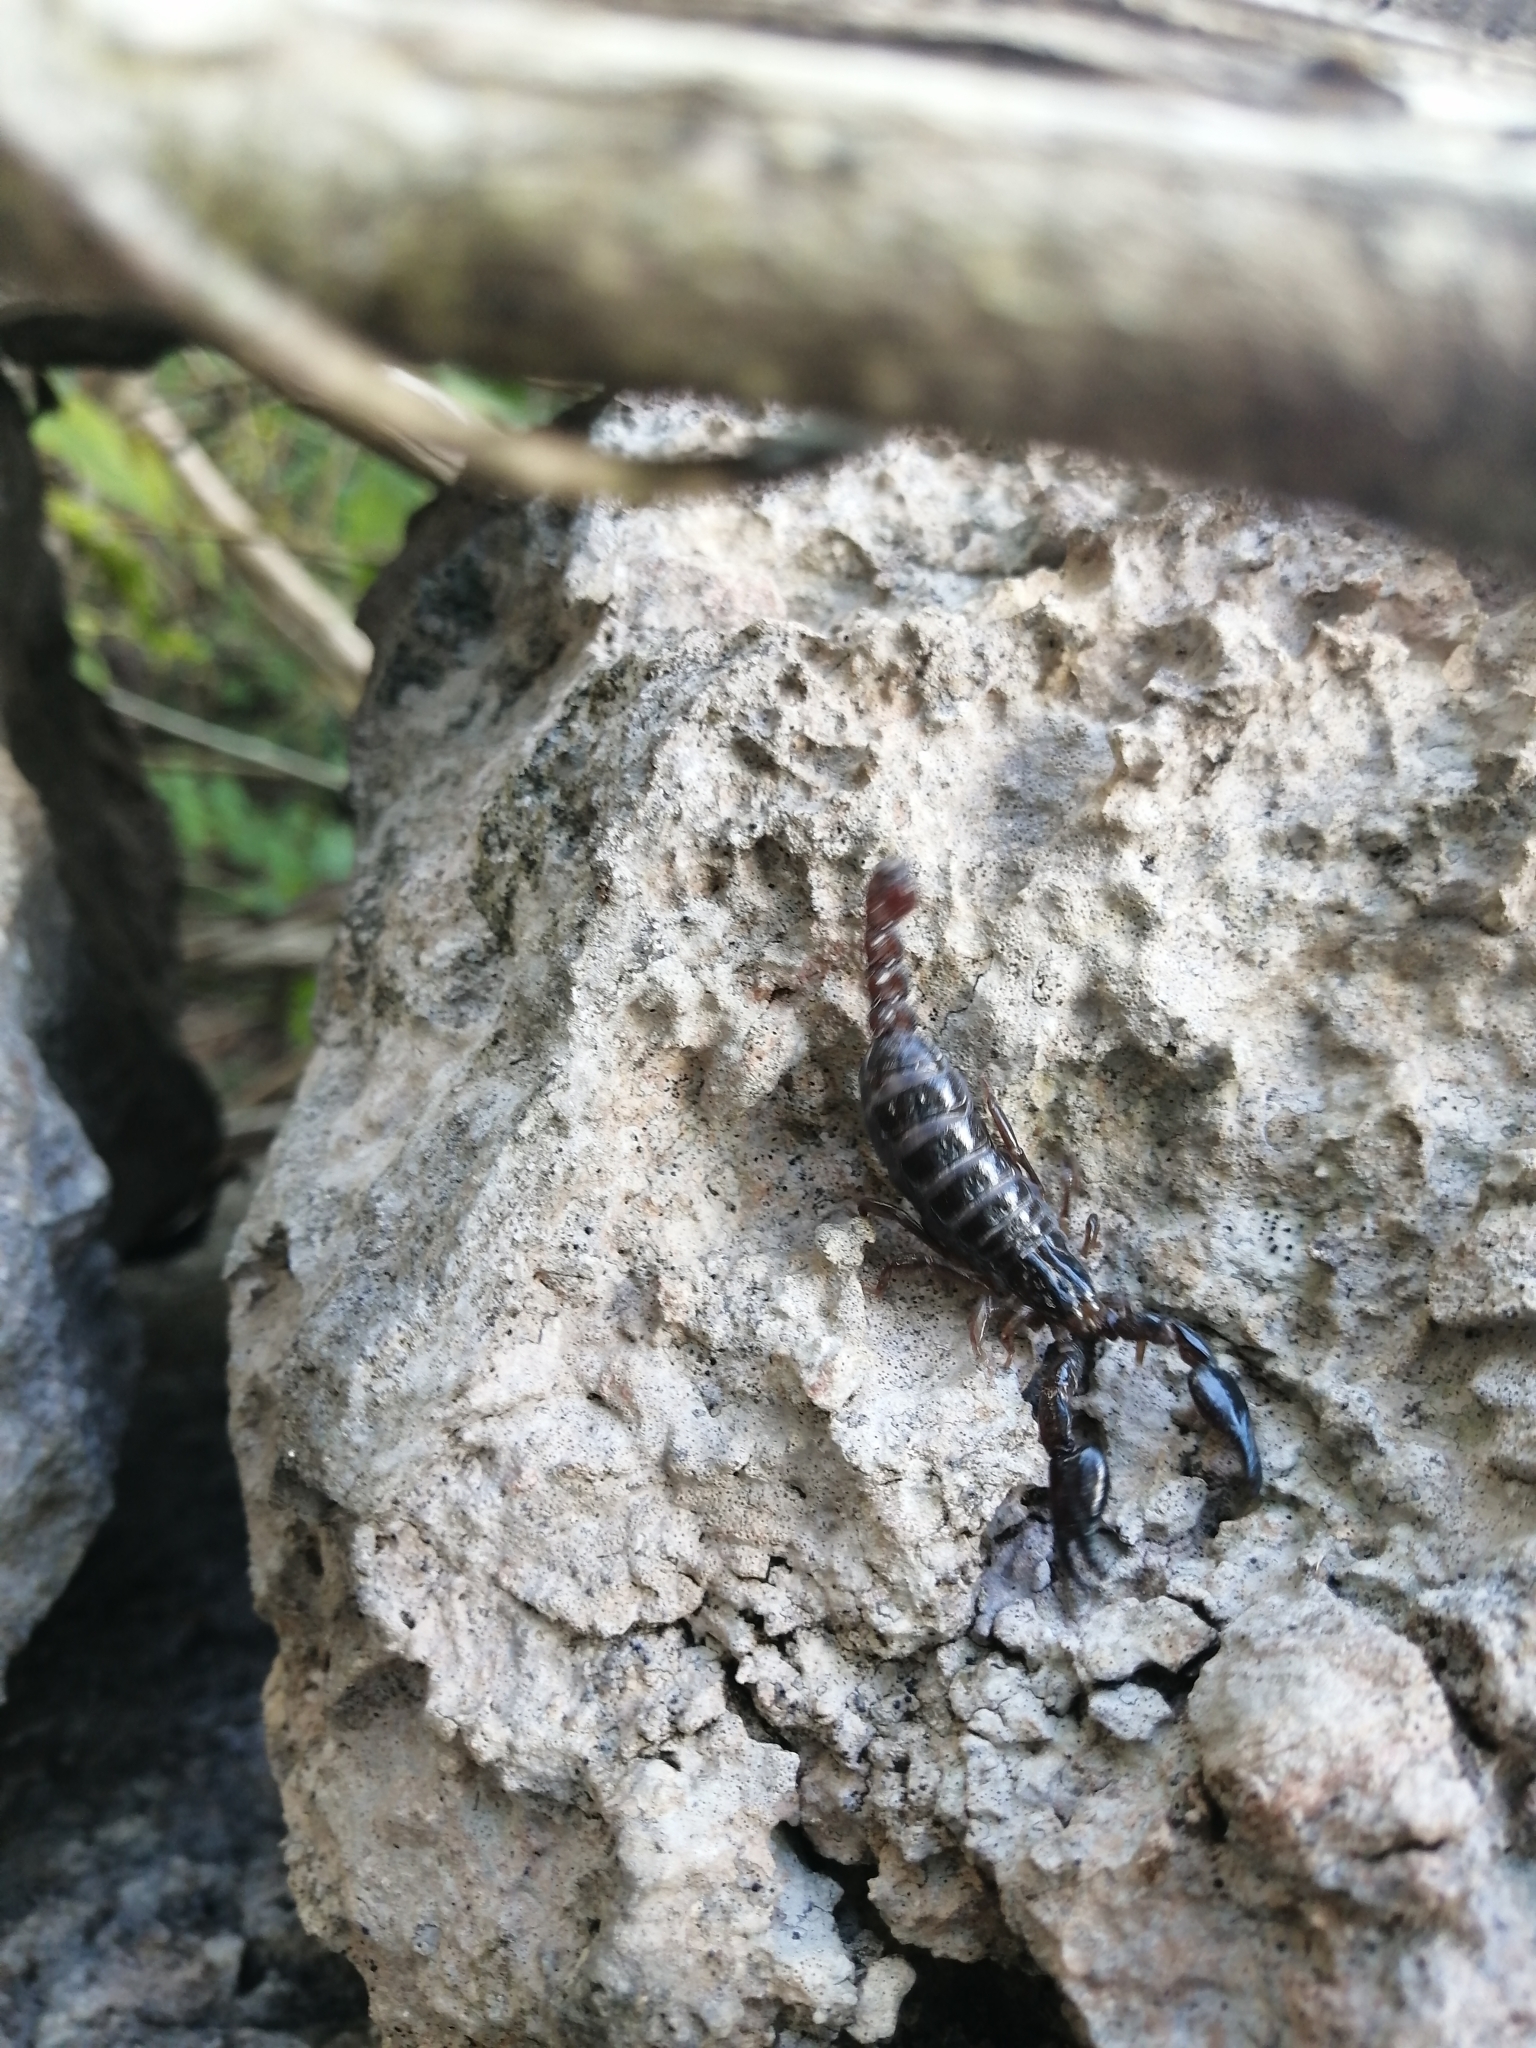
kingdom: Animalia
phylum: Arthropoda
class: Arachnida
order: Scorpiones
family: Diplocentridae
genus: Diplocentrus
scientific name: Diplocentrus reddelli
